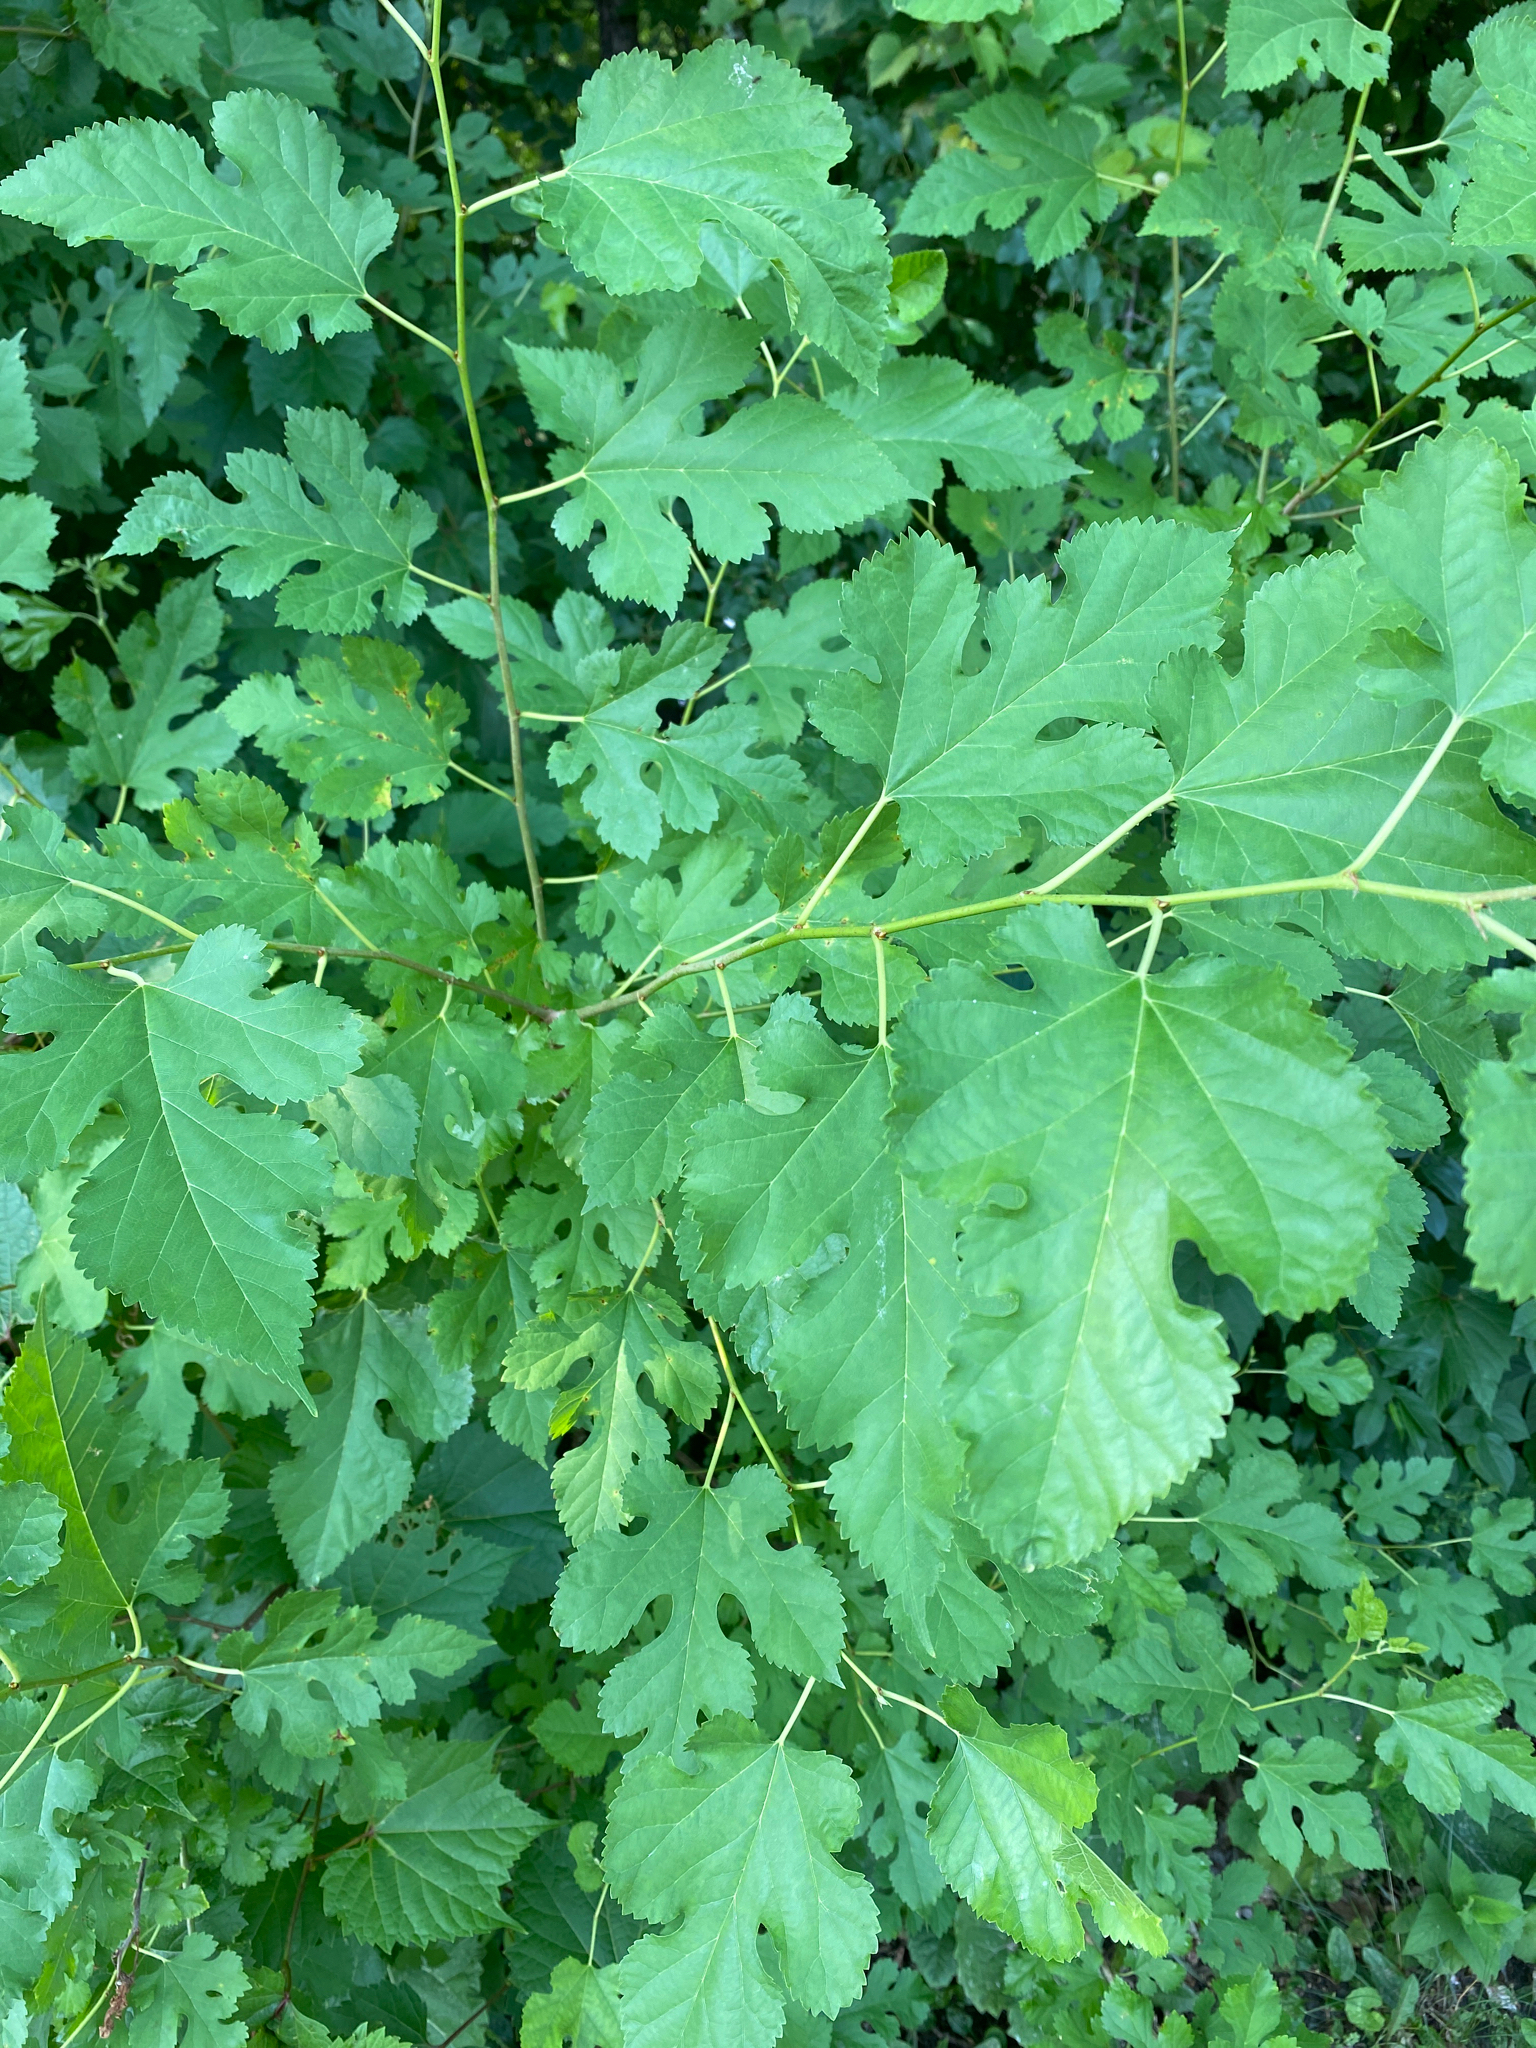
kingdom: Plantae
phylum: Tracheophyta
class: Magnoliopsida
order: Rosales
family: Moraceae
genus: Morus
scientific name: Morus alba
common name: White mulberry
